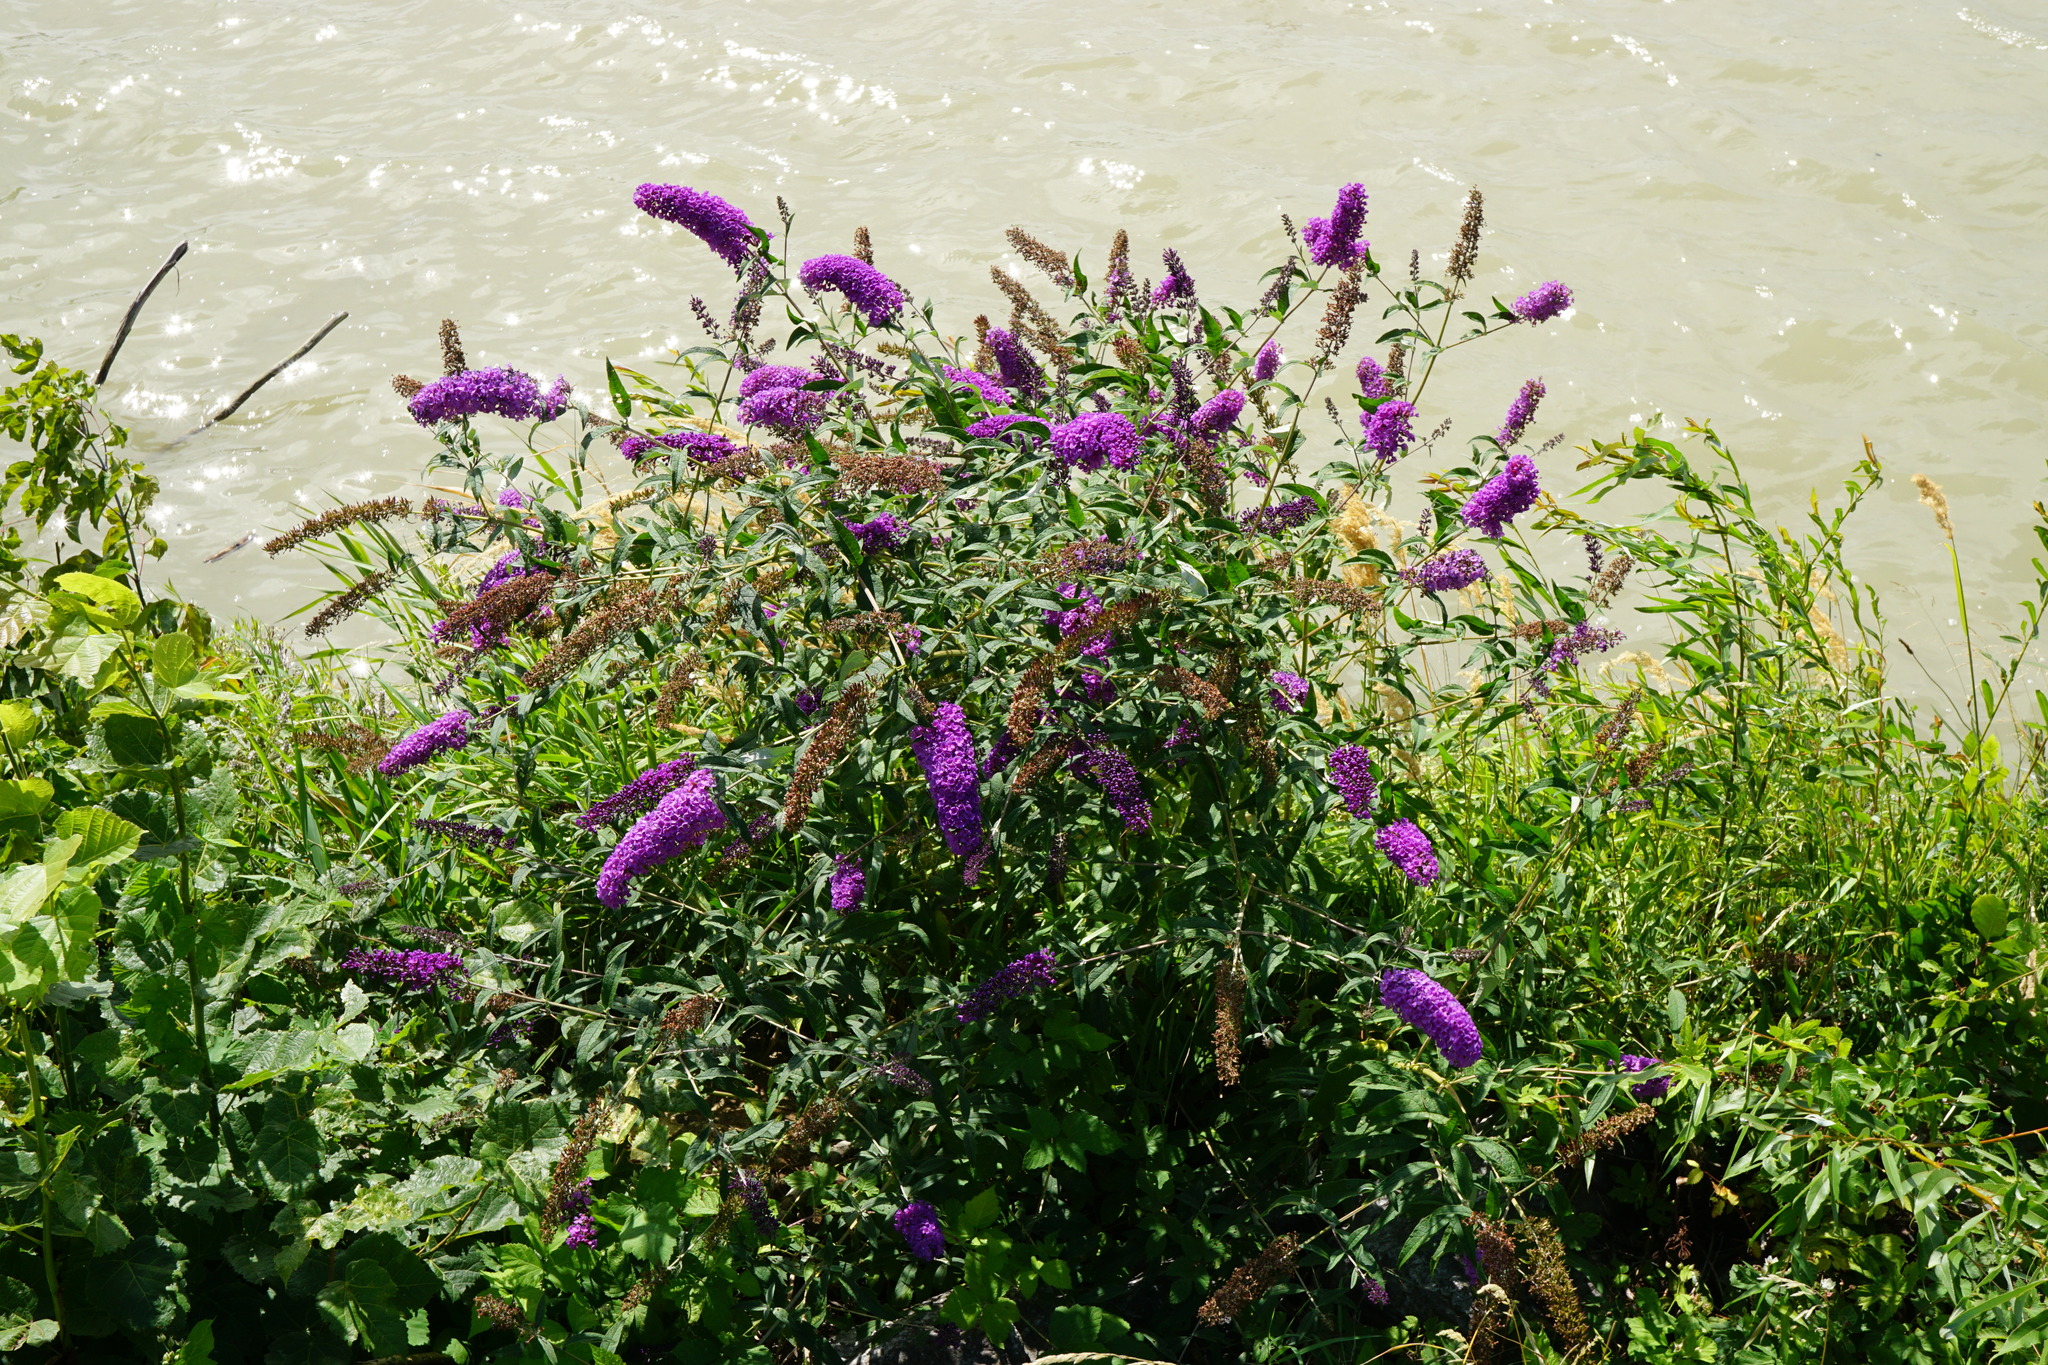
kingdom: Plantae
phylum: Tracheophyta
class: Magnoliopsida
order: Lamiales
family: Scrophulariaceae
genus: Buddleja
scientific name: Buddleja davidii
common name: Butterfly-bush
